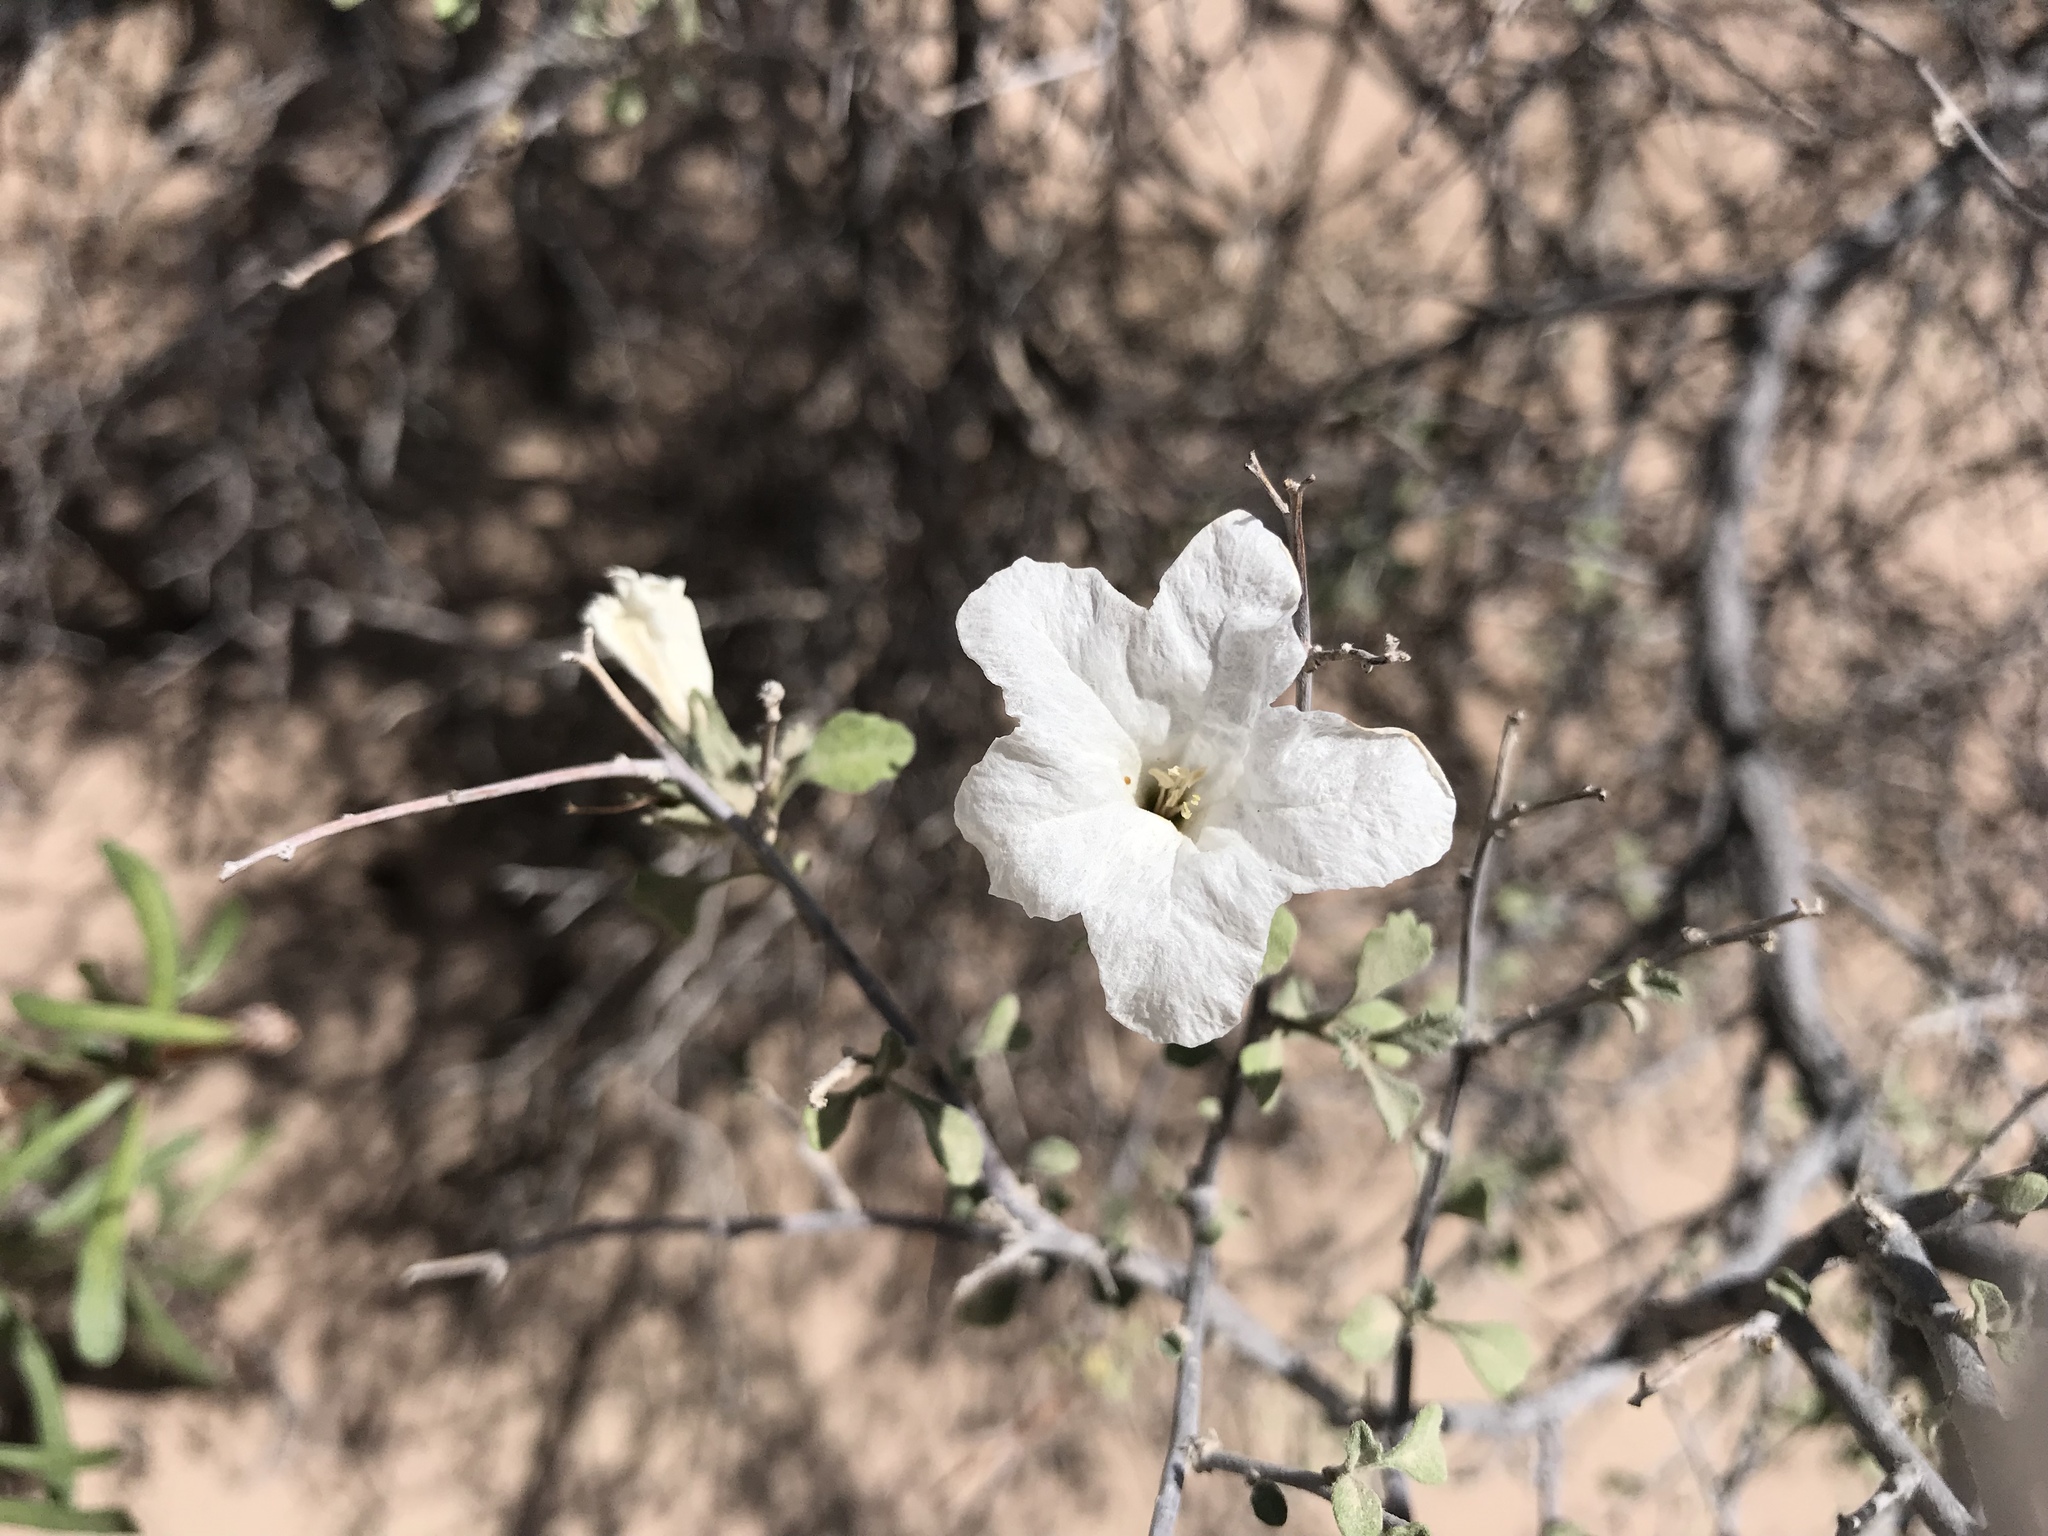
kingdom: Plantae
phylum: Tracheophyta
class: Magnoliopsida
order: Boraginales
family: Cordiaceae
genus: Cordia
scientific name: Cordia parvifolia
